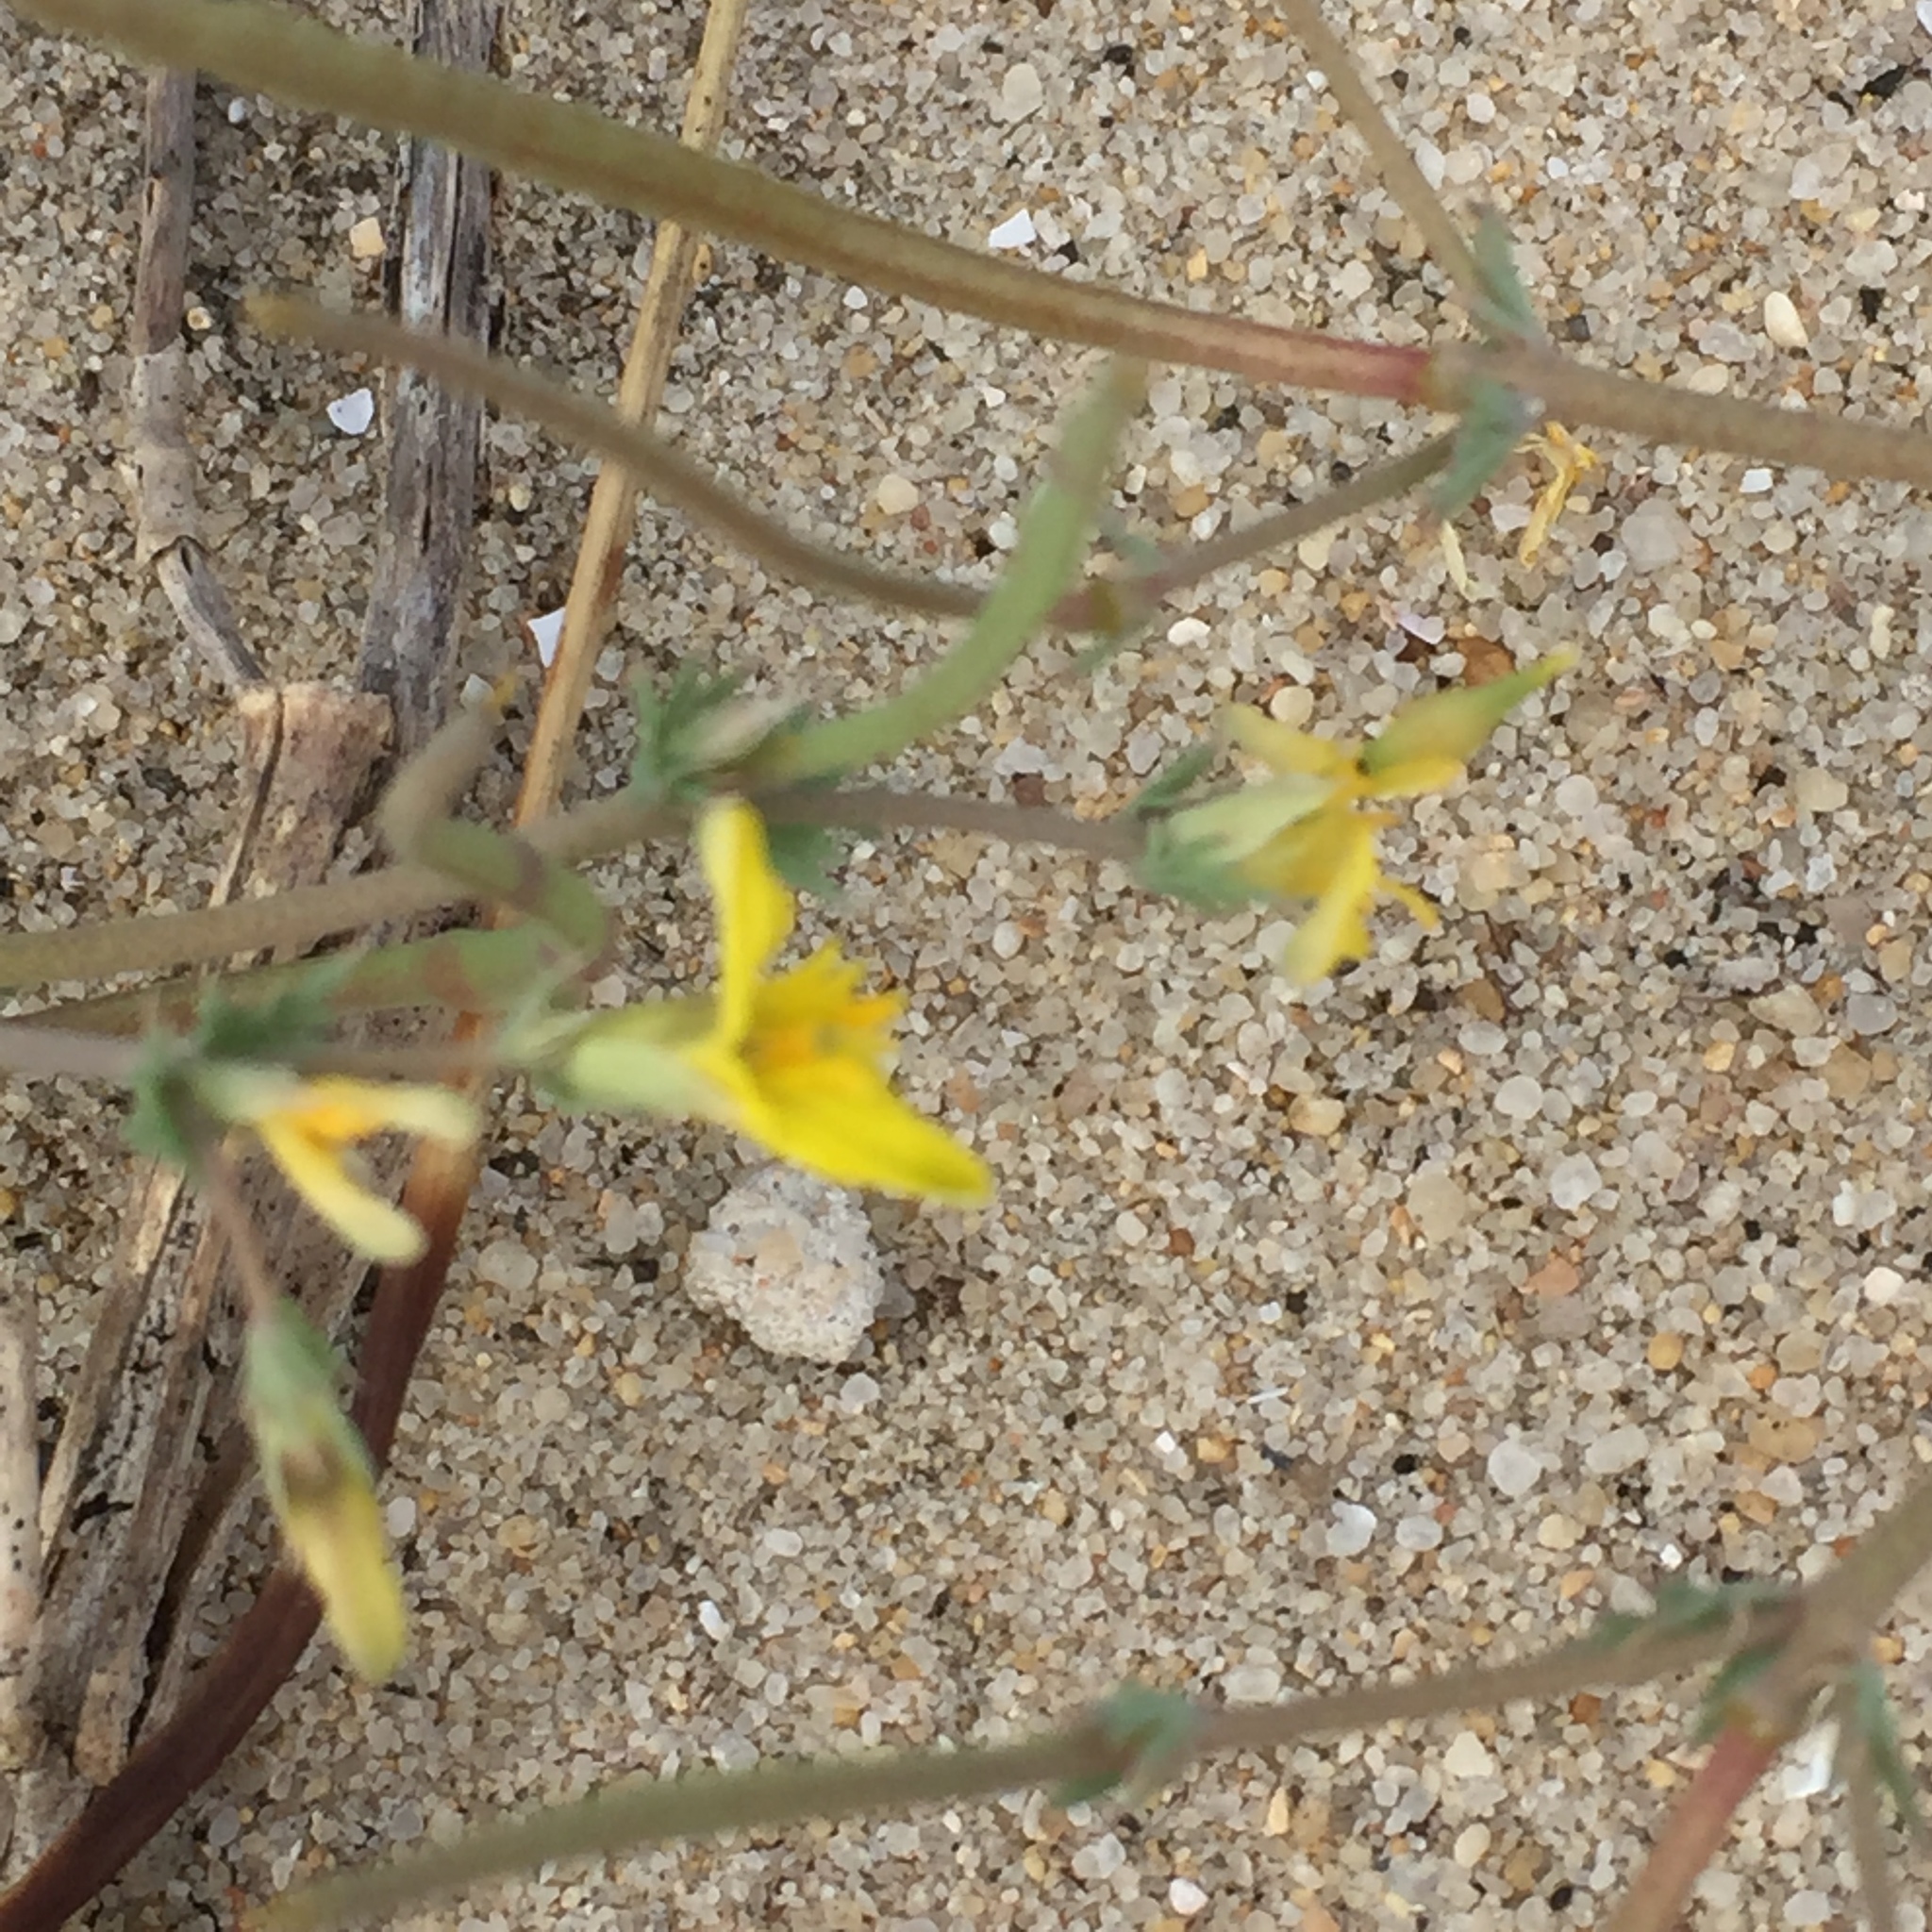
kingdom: Plantae
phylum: Tracheophyta
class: Magnoliopsida
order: Ranunculales
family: Papaveraceae
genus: Hypecoum
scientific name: Hypecoum littorale
